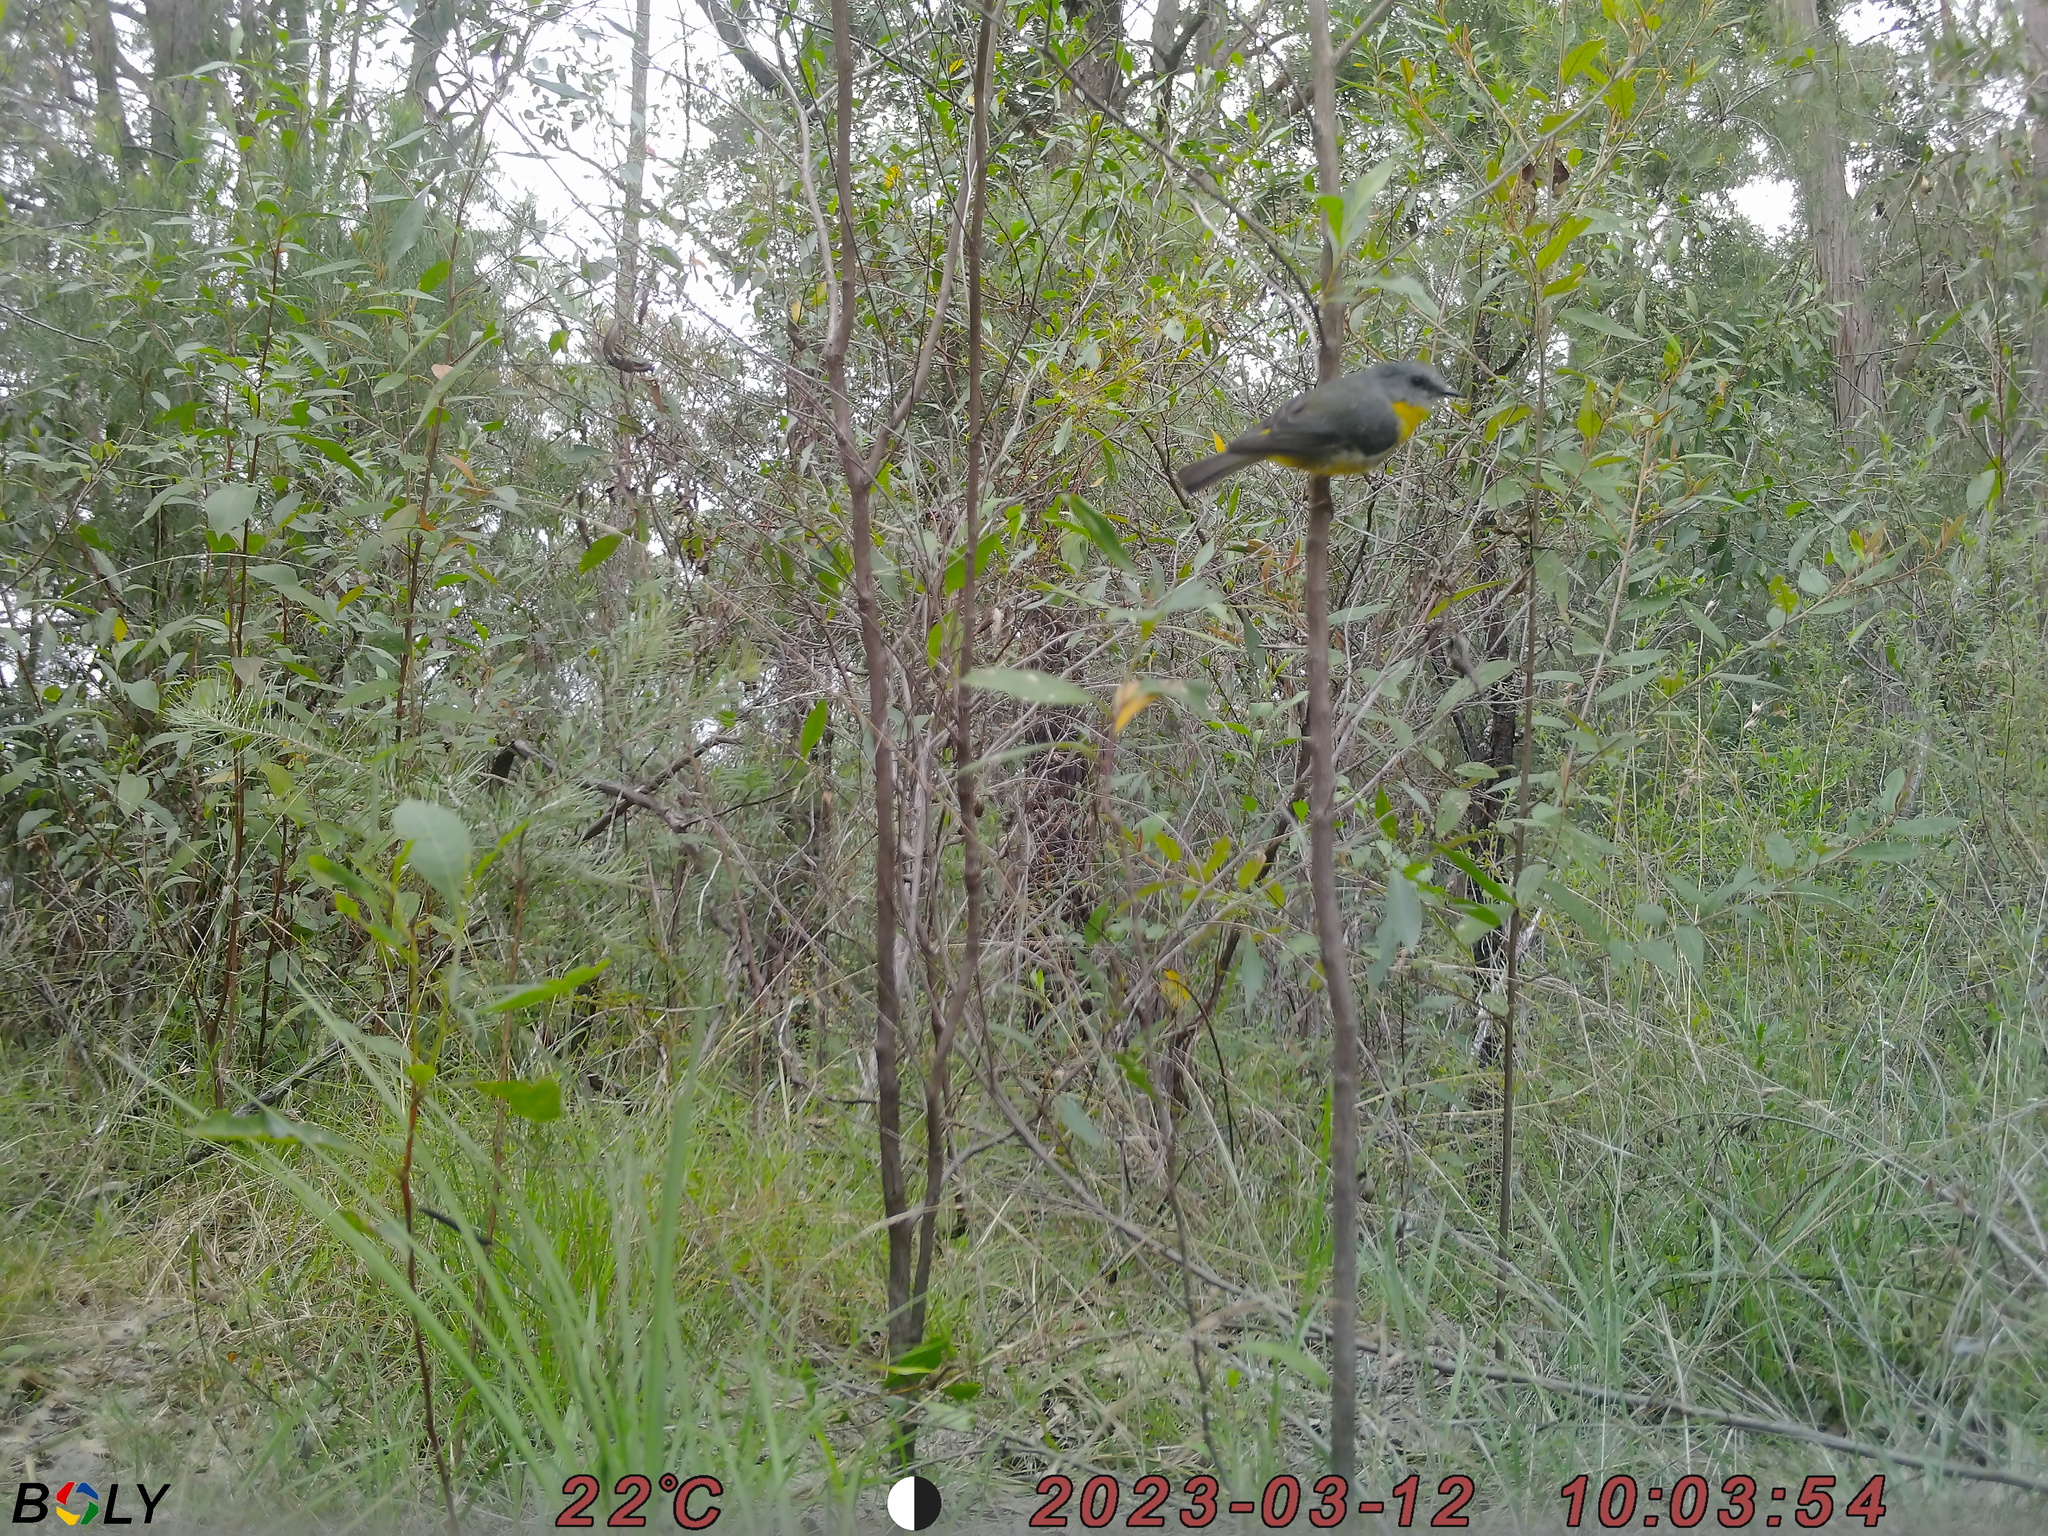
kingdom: Animalia
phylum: Chordata
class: Aves
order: Passeriformes
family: Petroicidae
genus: Eopsaltria
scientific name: Eopsaltria australis
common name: Eastern yellow robin
